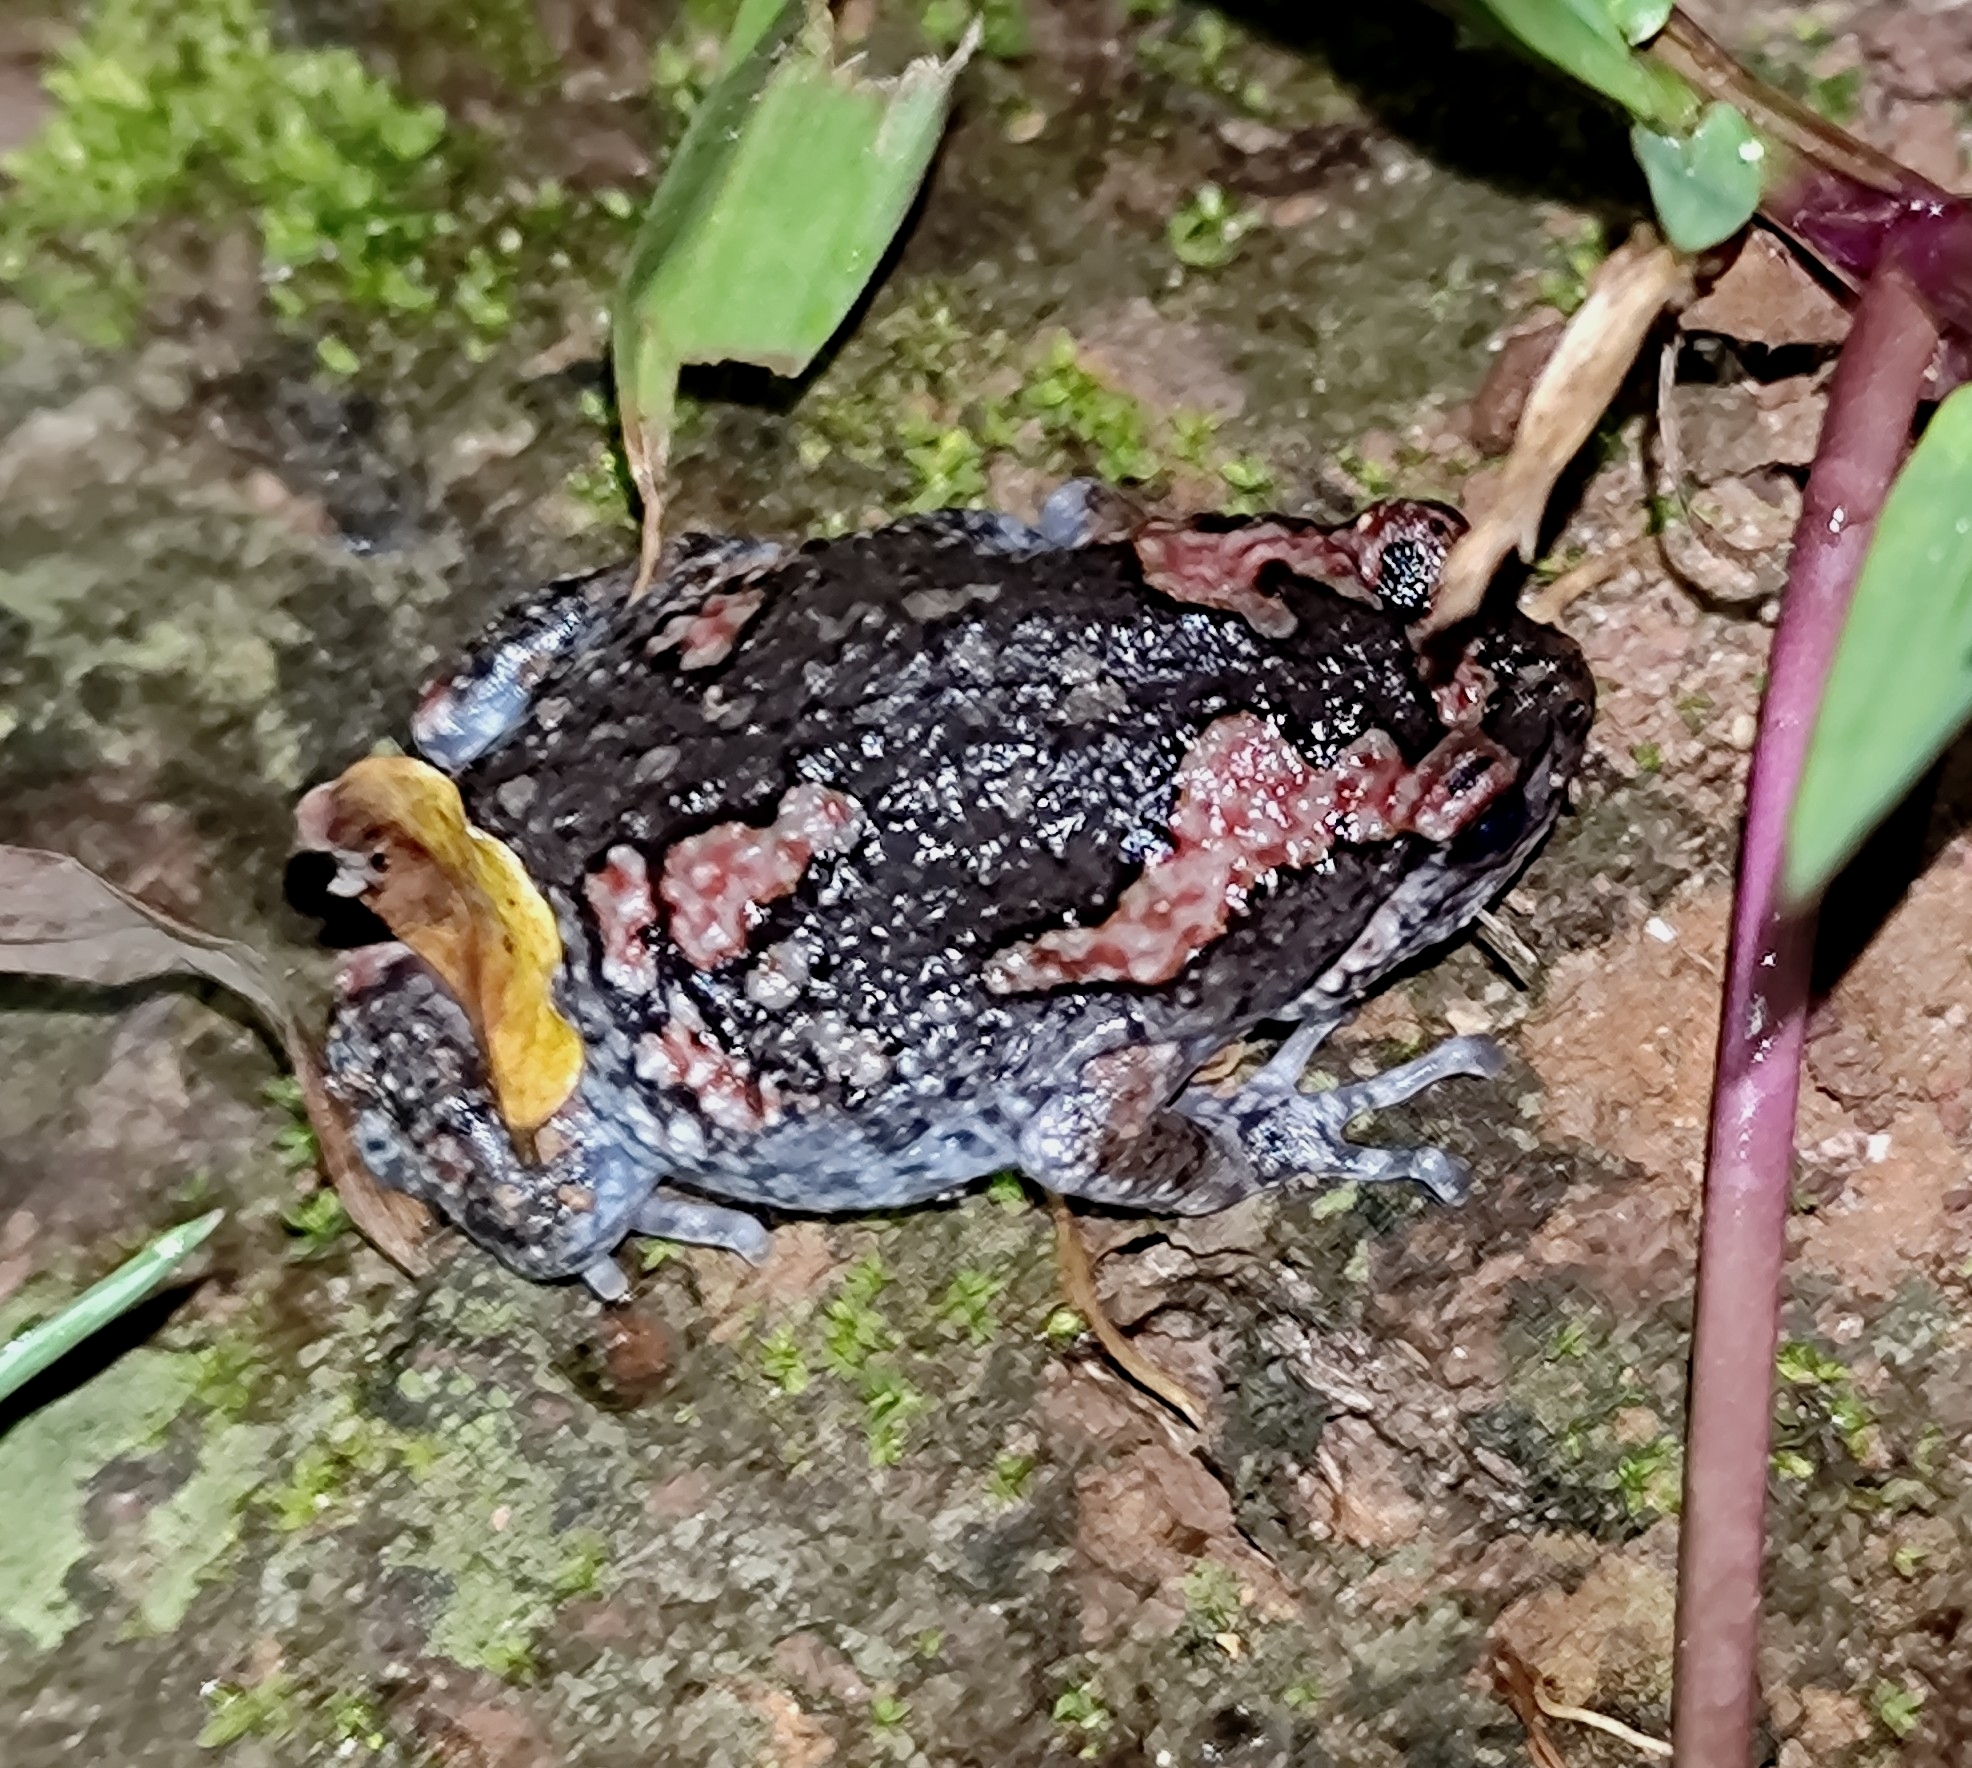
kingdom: Animalia
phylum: Chordata
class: Amphibia
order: Anura
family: Microhylidae
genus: Uperodon
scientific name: Uperodon taprobanicus
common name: Ceylon kaloula
